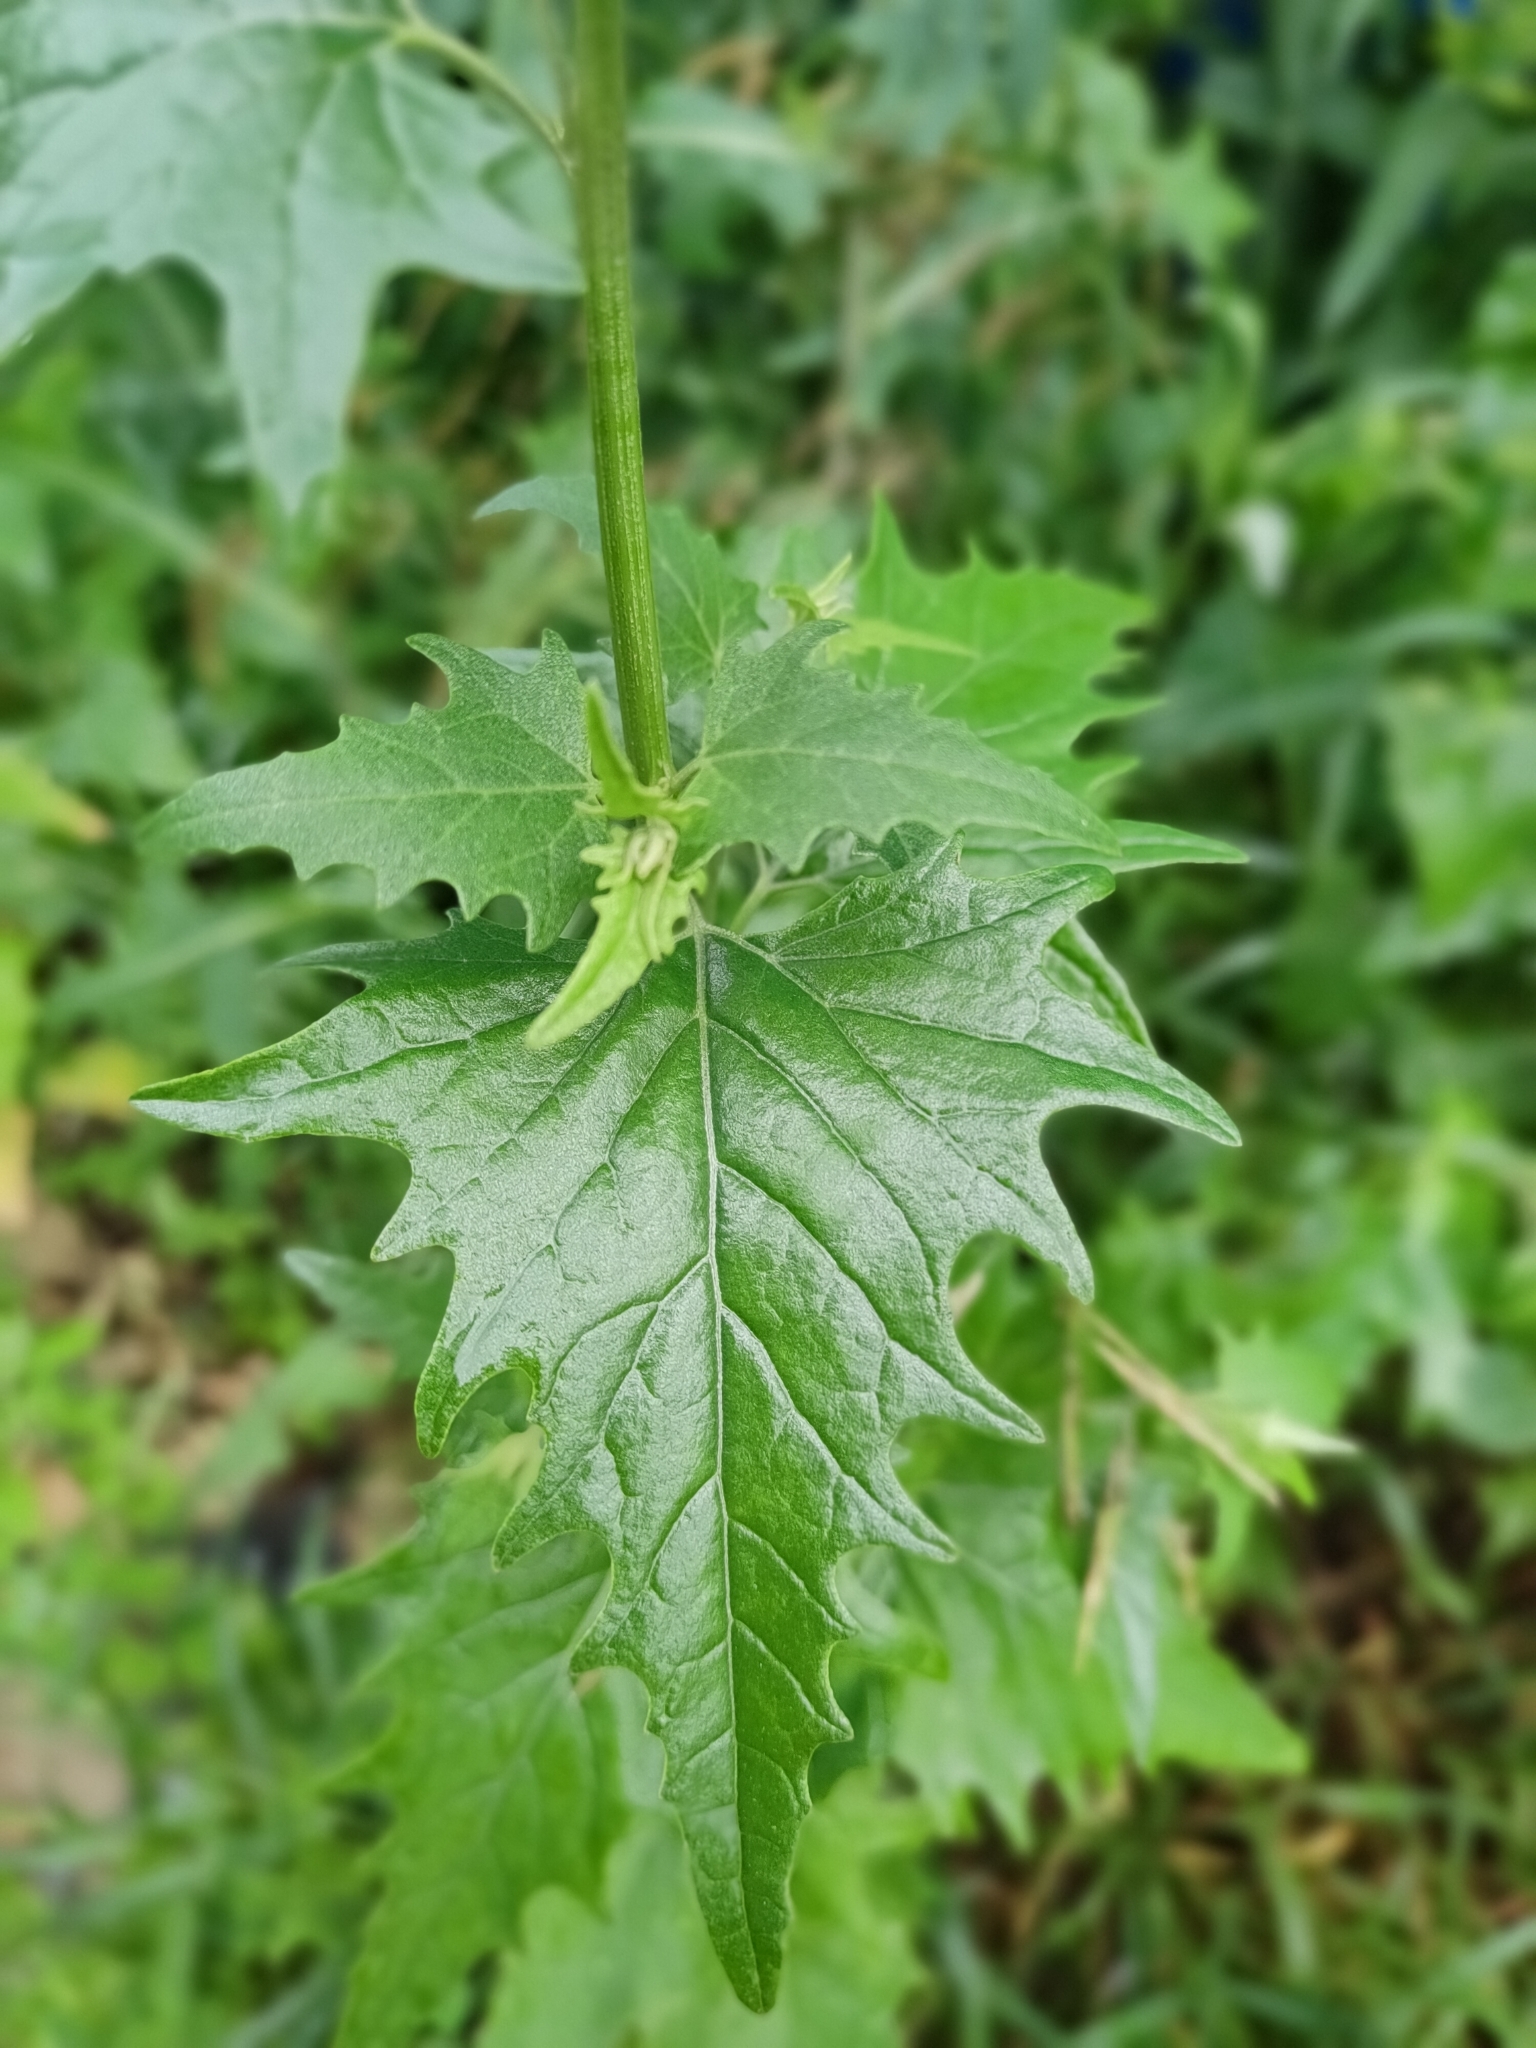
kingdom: Plantae
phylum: Tracheophyta
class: Magnoliopsida
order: Caryophyllales
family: Amaranthaceae
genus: Atriplex
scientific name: Atriplex sagittata
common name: Purple orache
